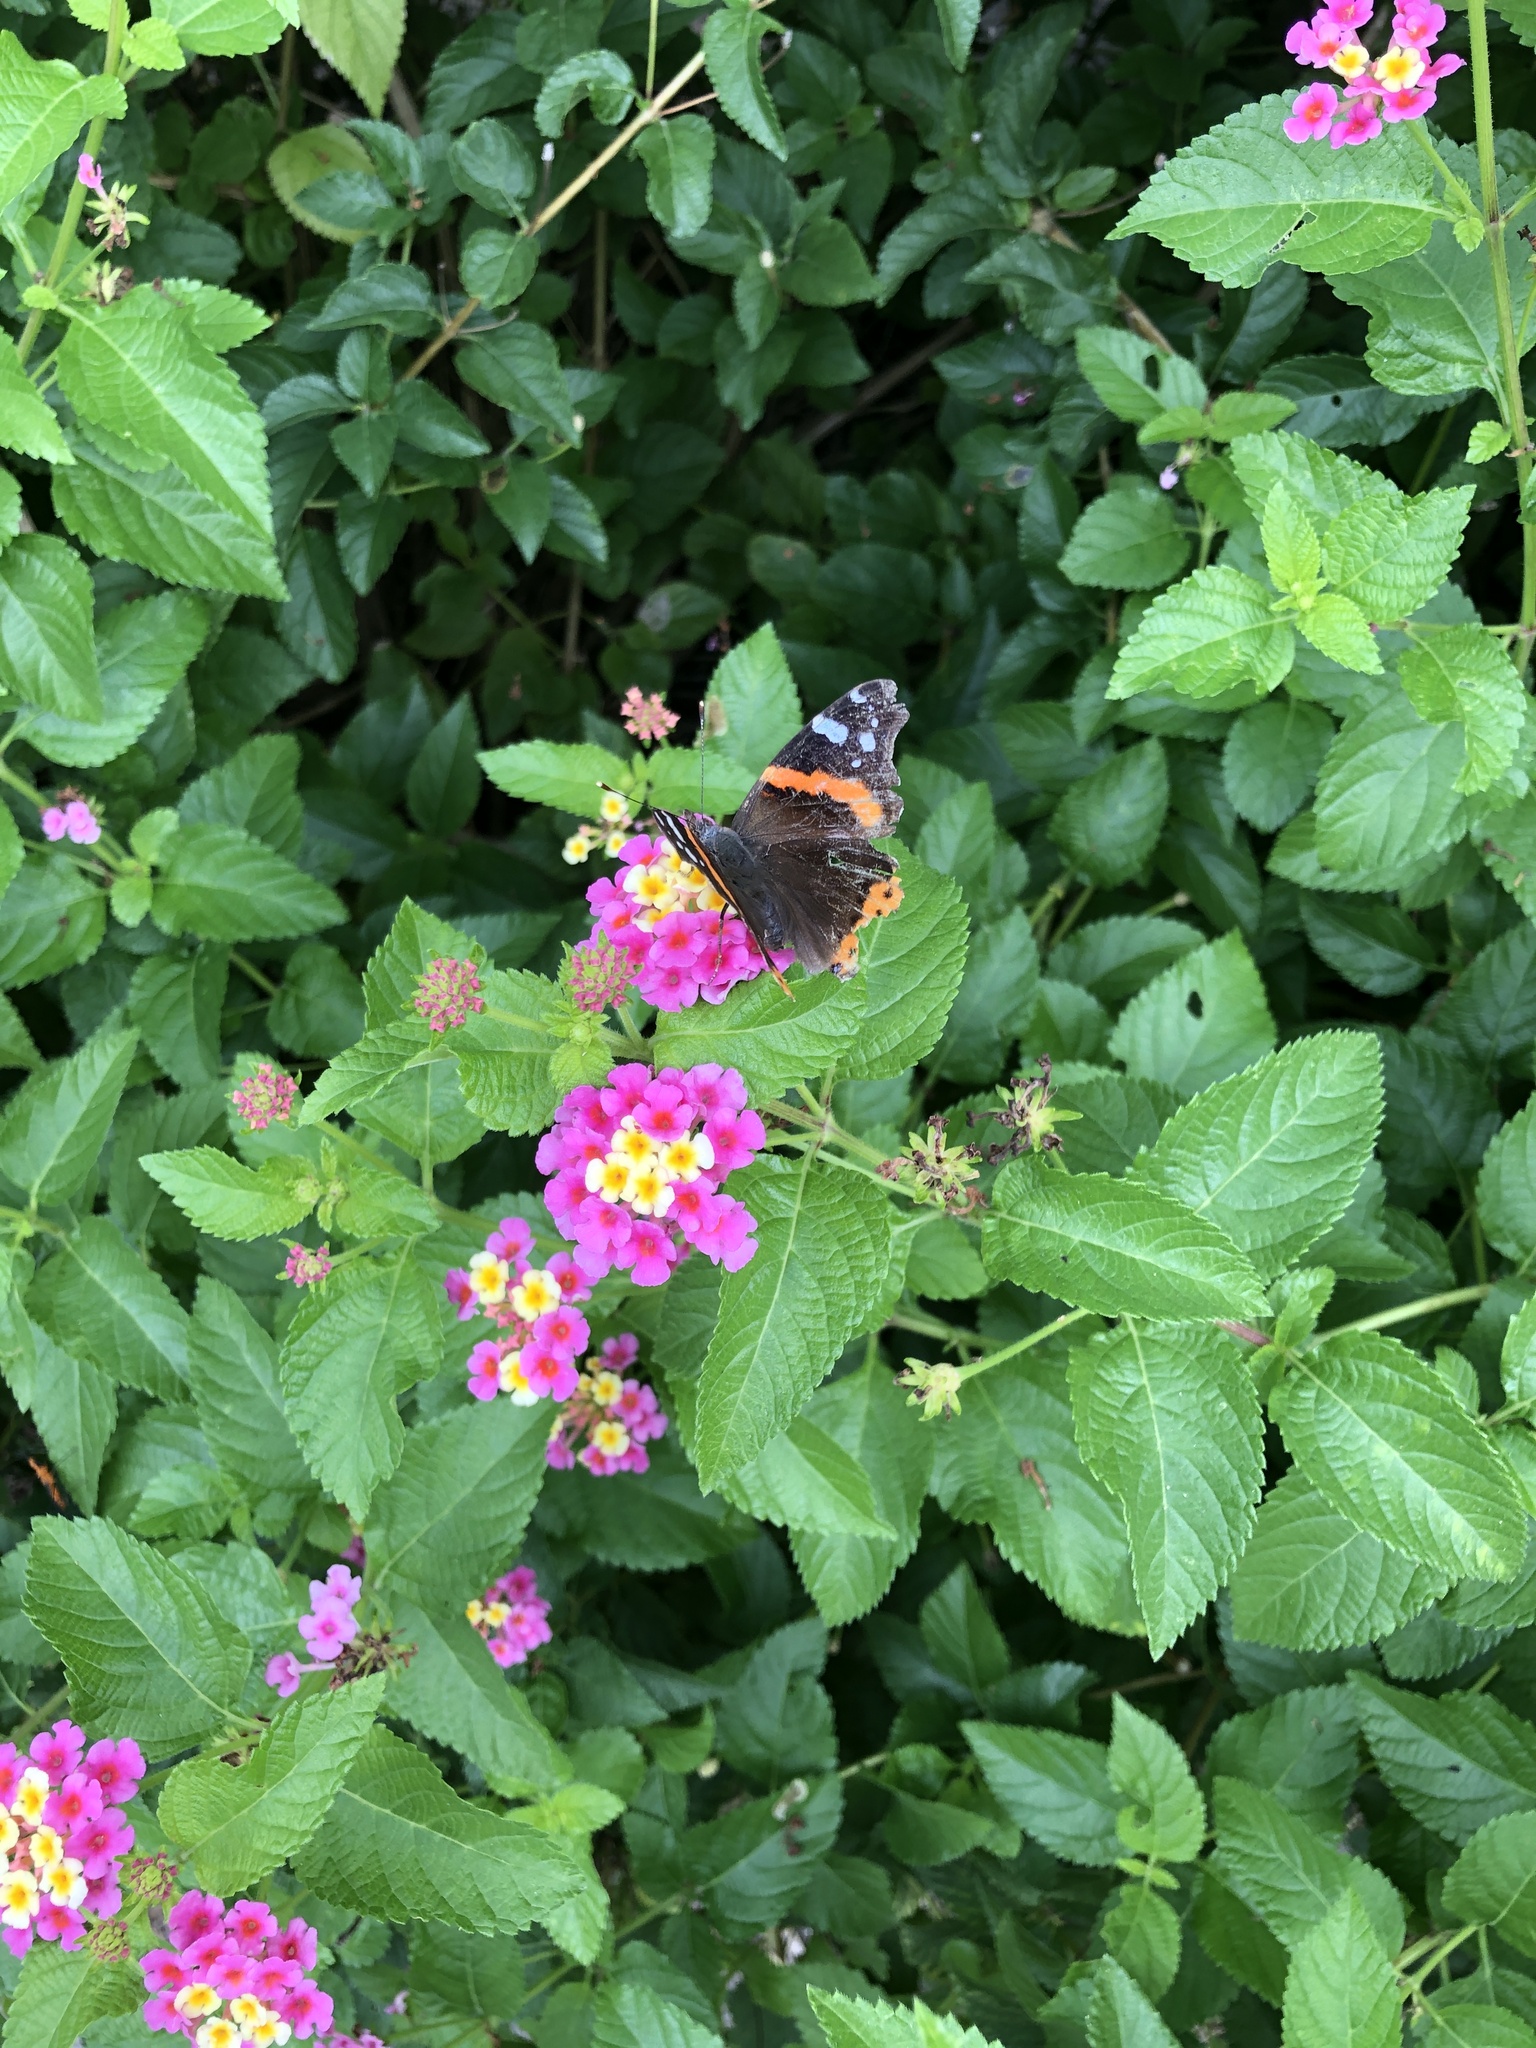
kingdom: Animalia
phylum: Arthropoda
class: Insecta
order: Lepidoptera
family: Nymphalidae
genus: Vanessa
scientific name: Vanessa atalanta
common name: Red admiral
